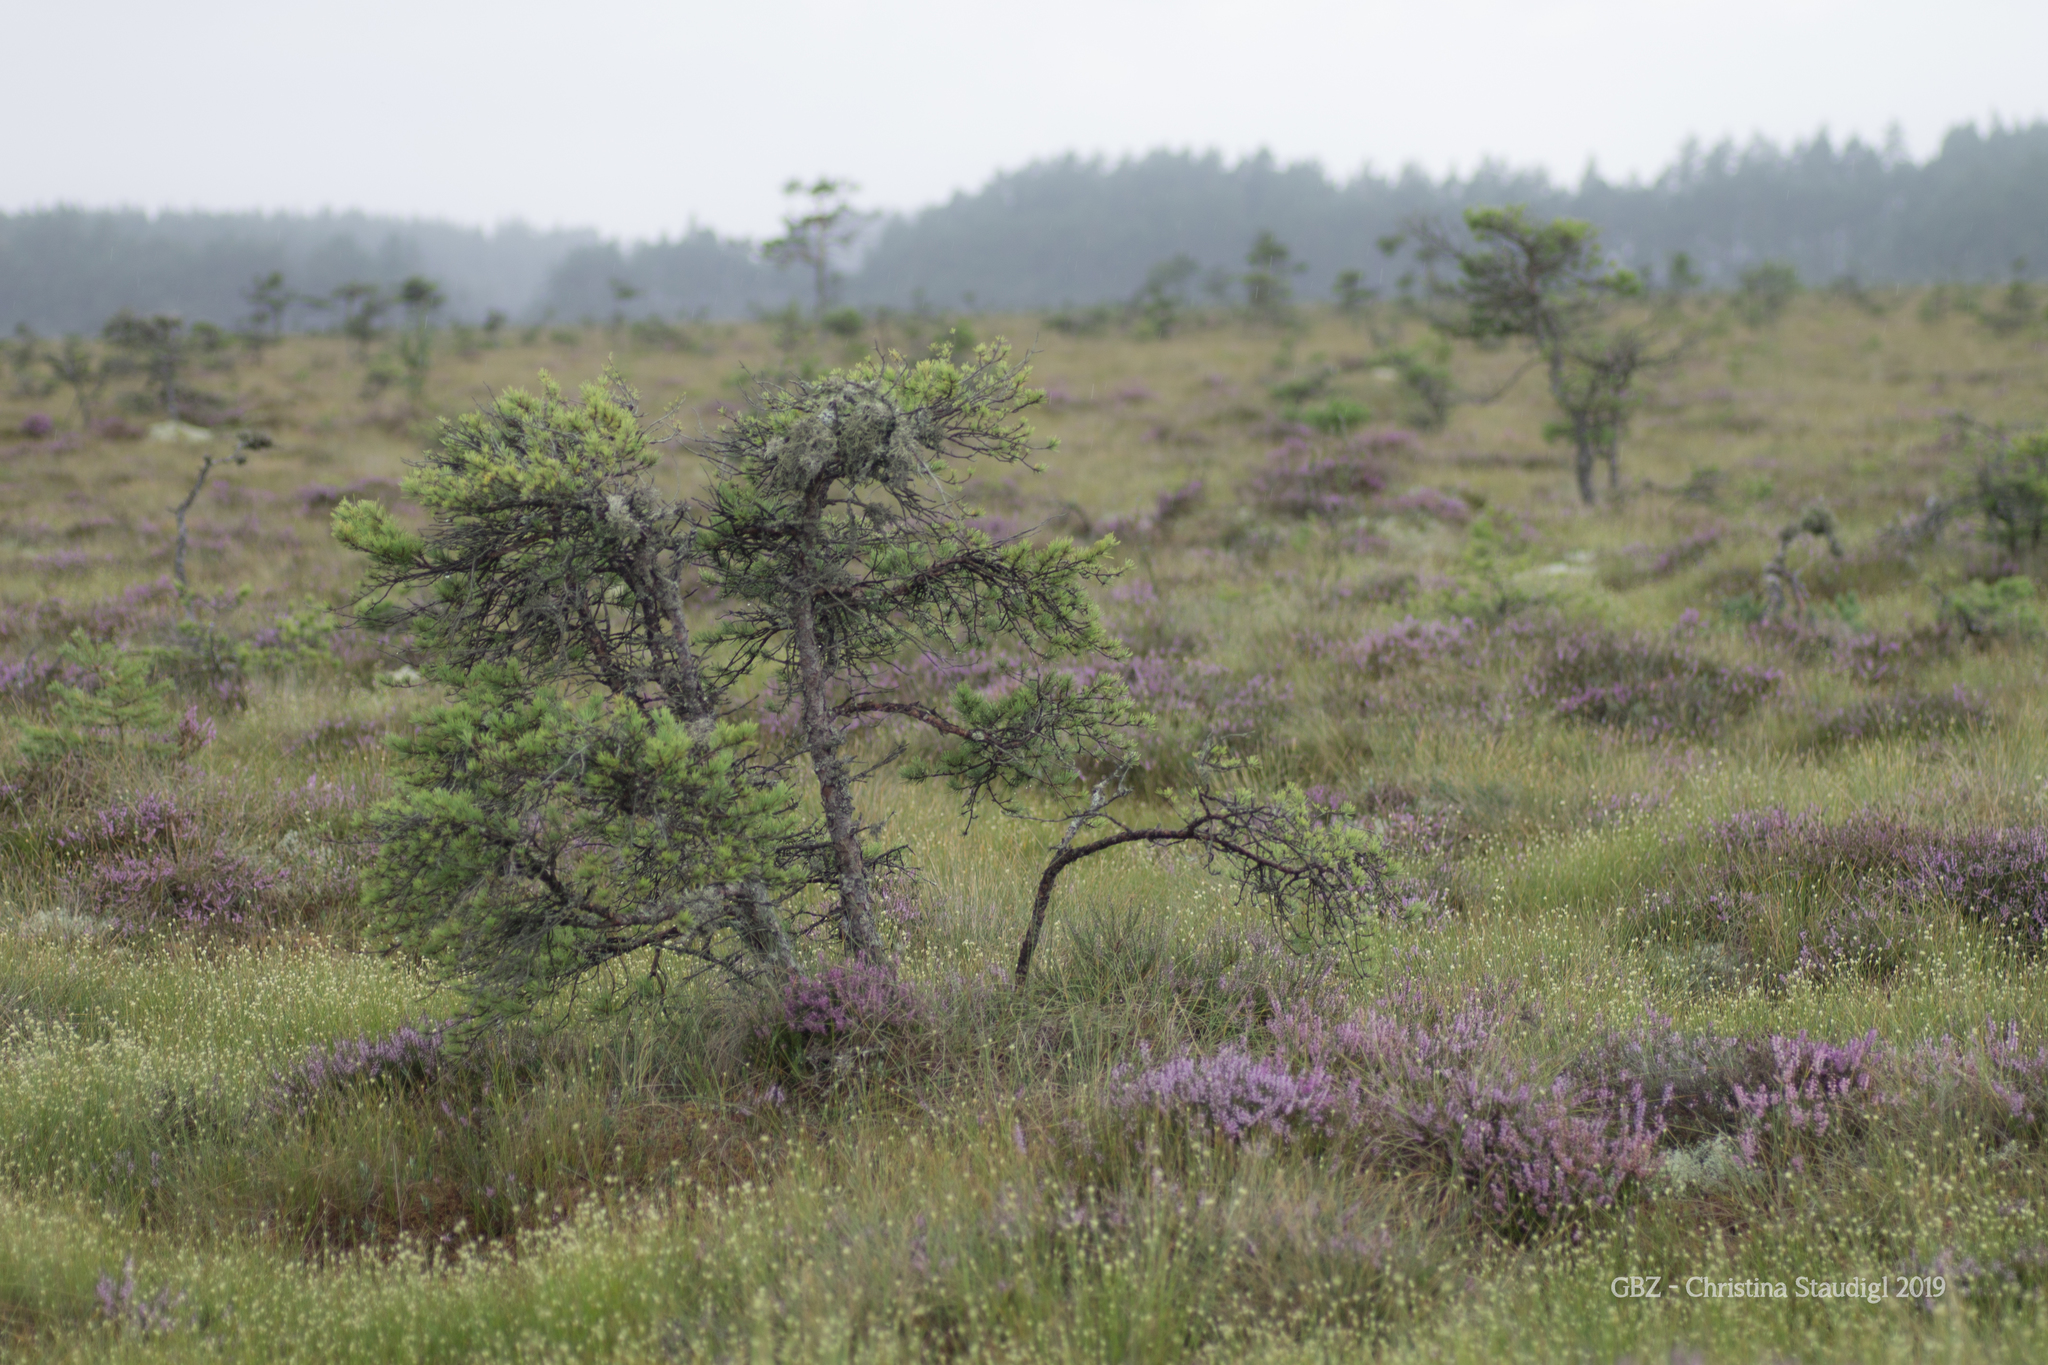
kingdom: Plantae
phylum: Tracheophyta
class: Pinopsida
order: Pinales
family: Pinaceae
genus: Pinus
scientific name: Pinus sylvestris
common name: Scots pine
